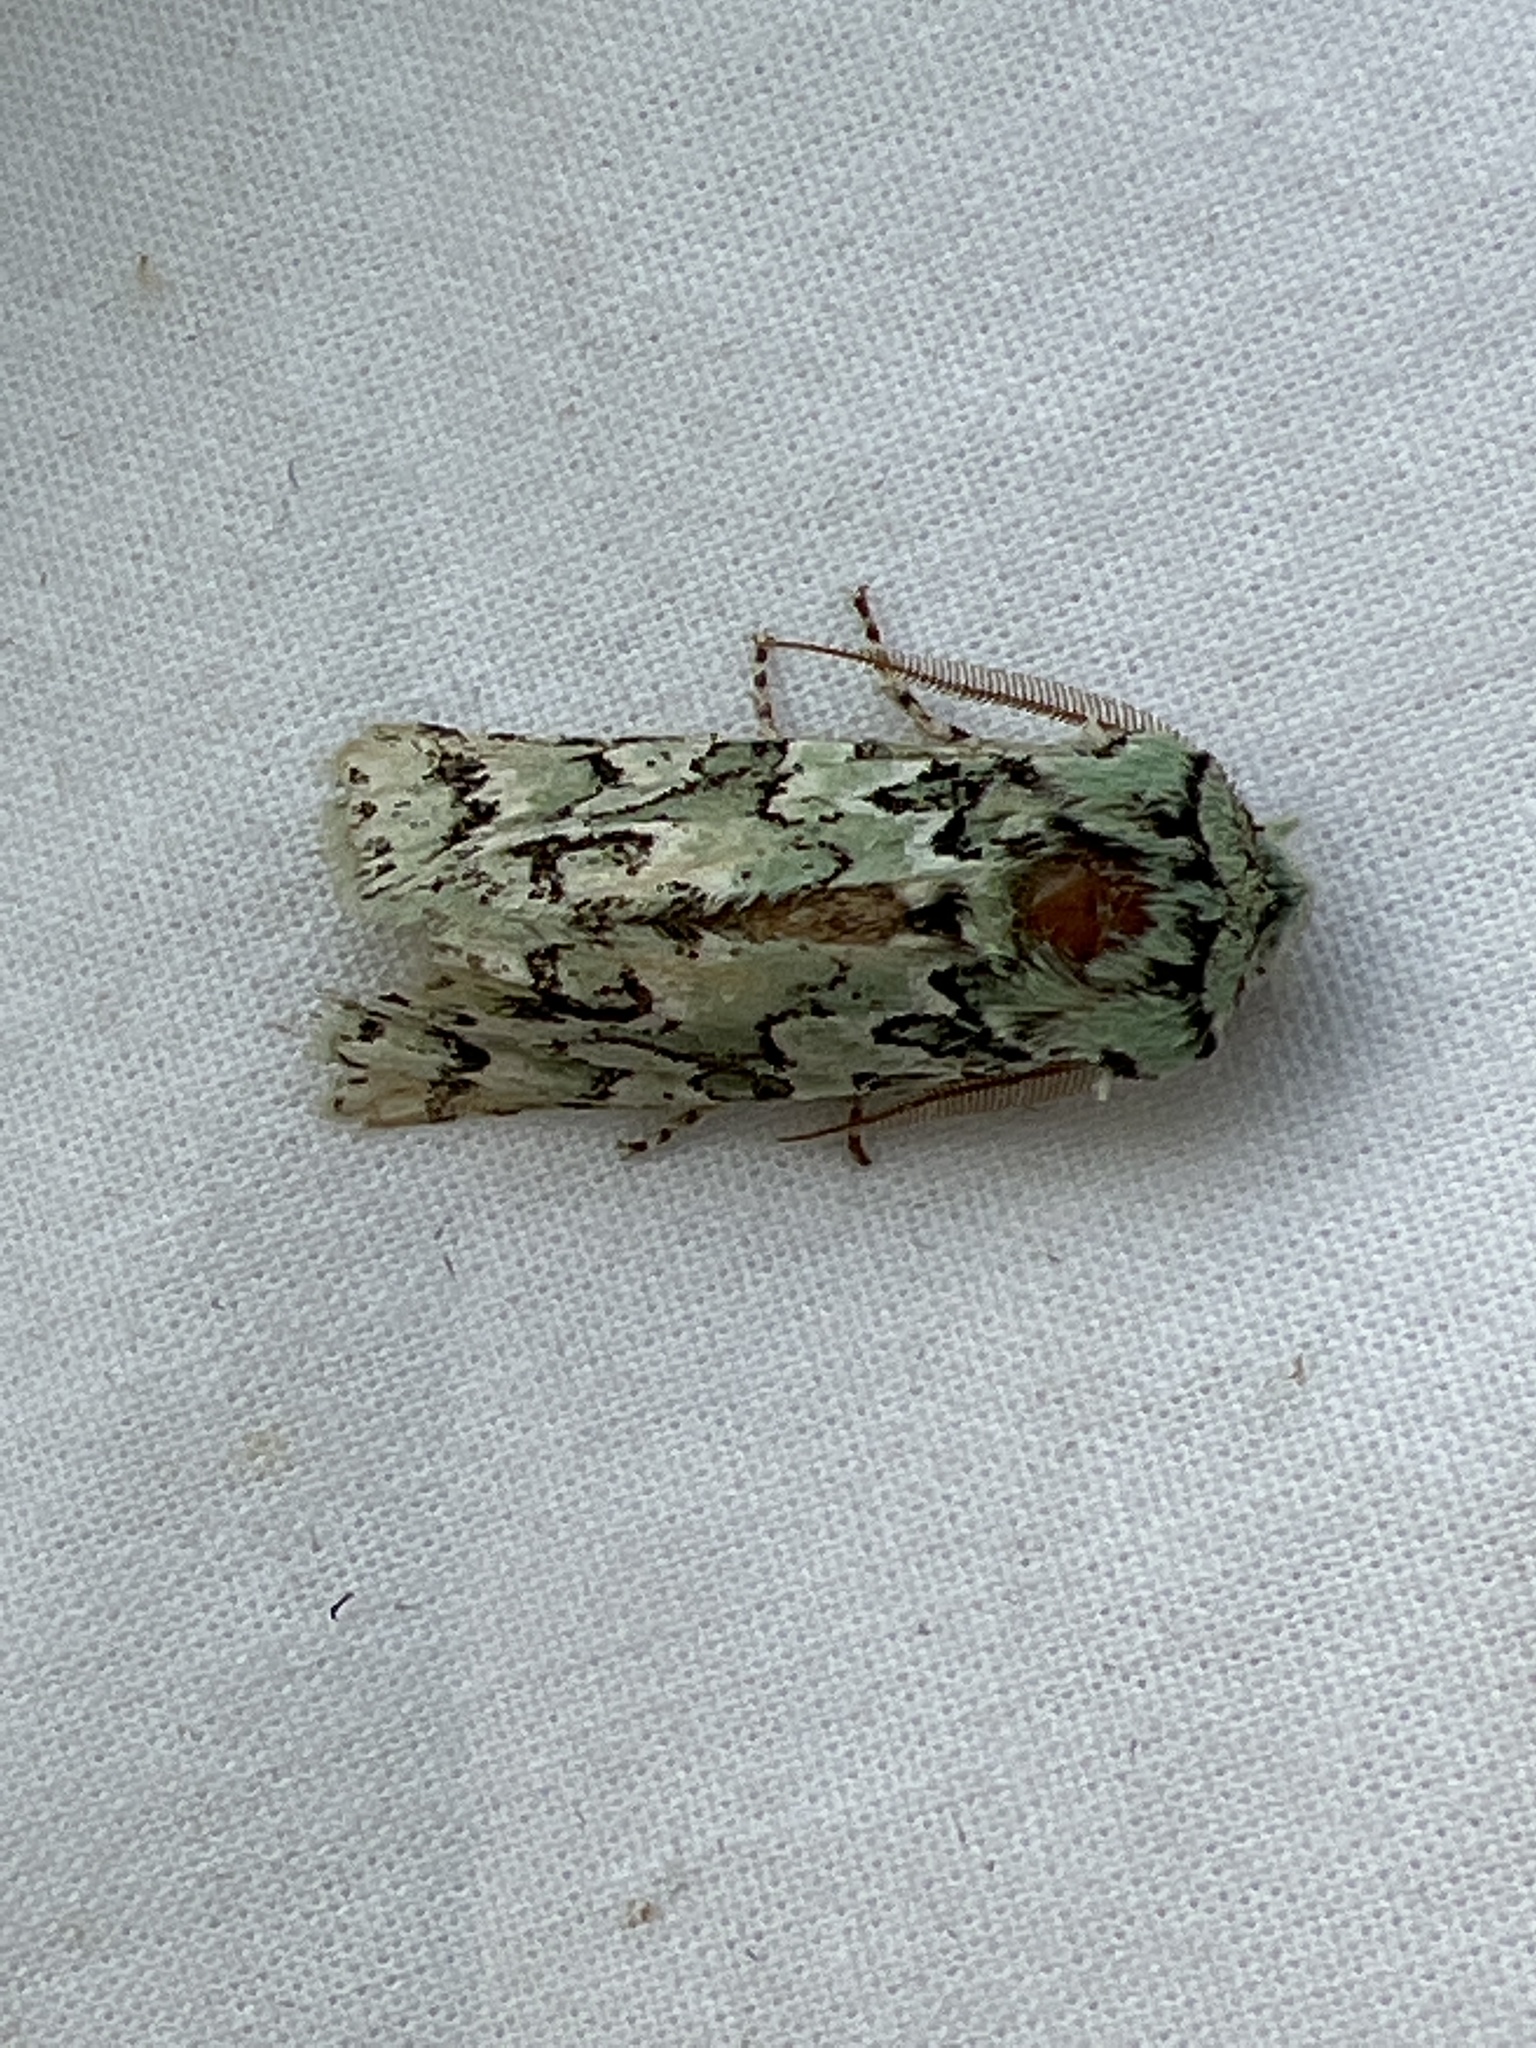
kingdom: Animalia
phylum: Arthropoda
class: Insecta
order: Lepidoptera
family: Noctuidae
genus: Feralia
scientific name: Feralia februalis
